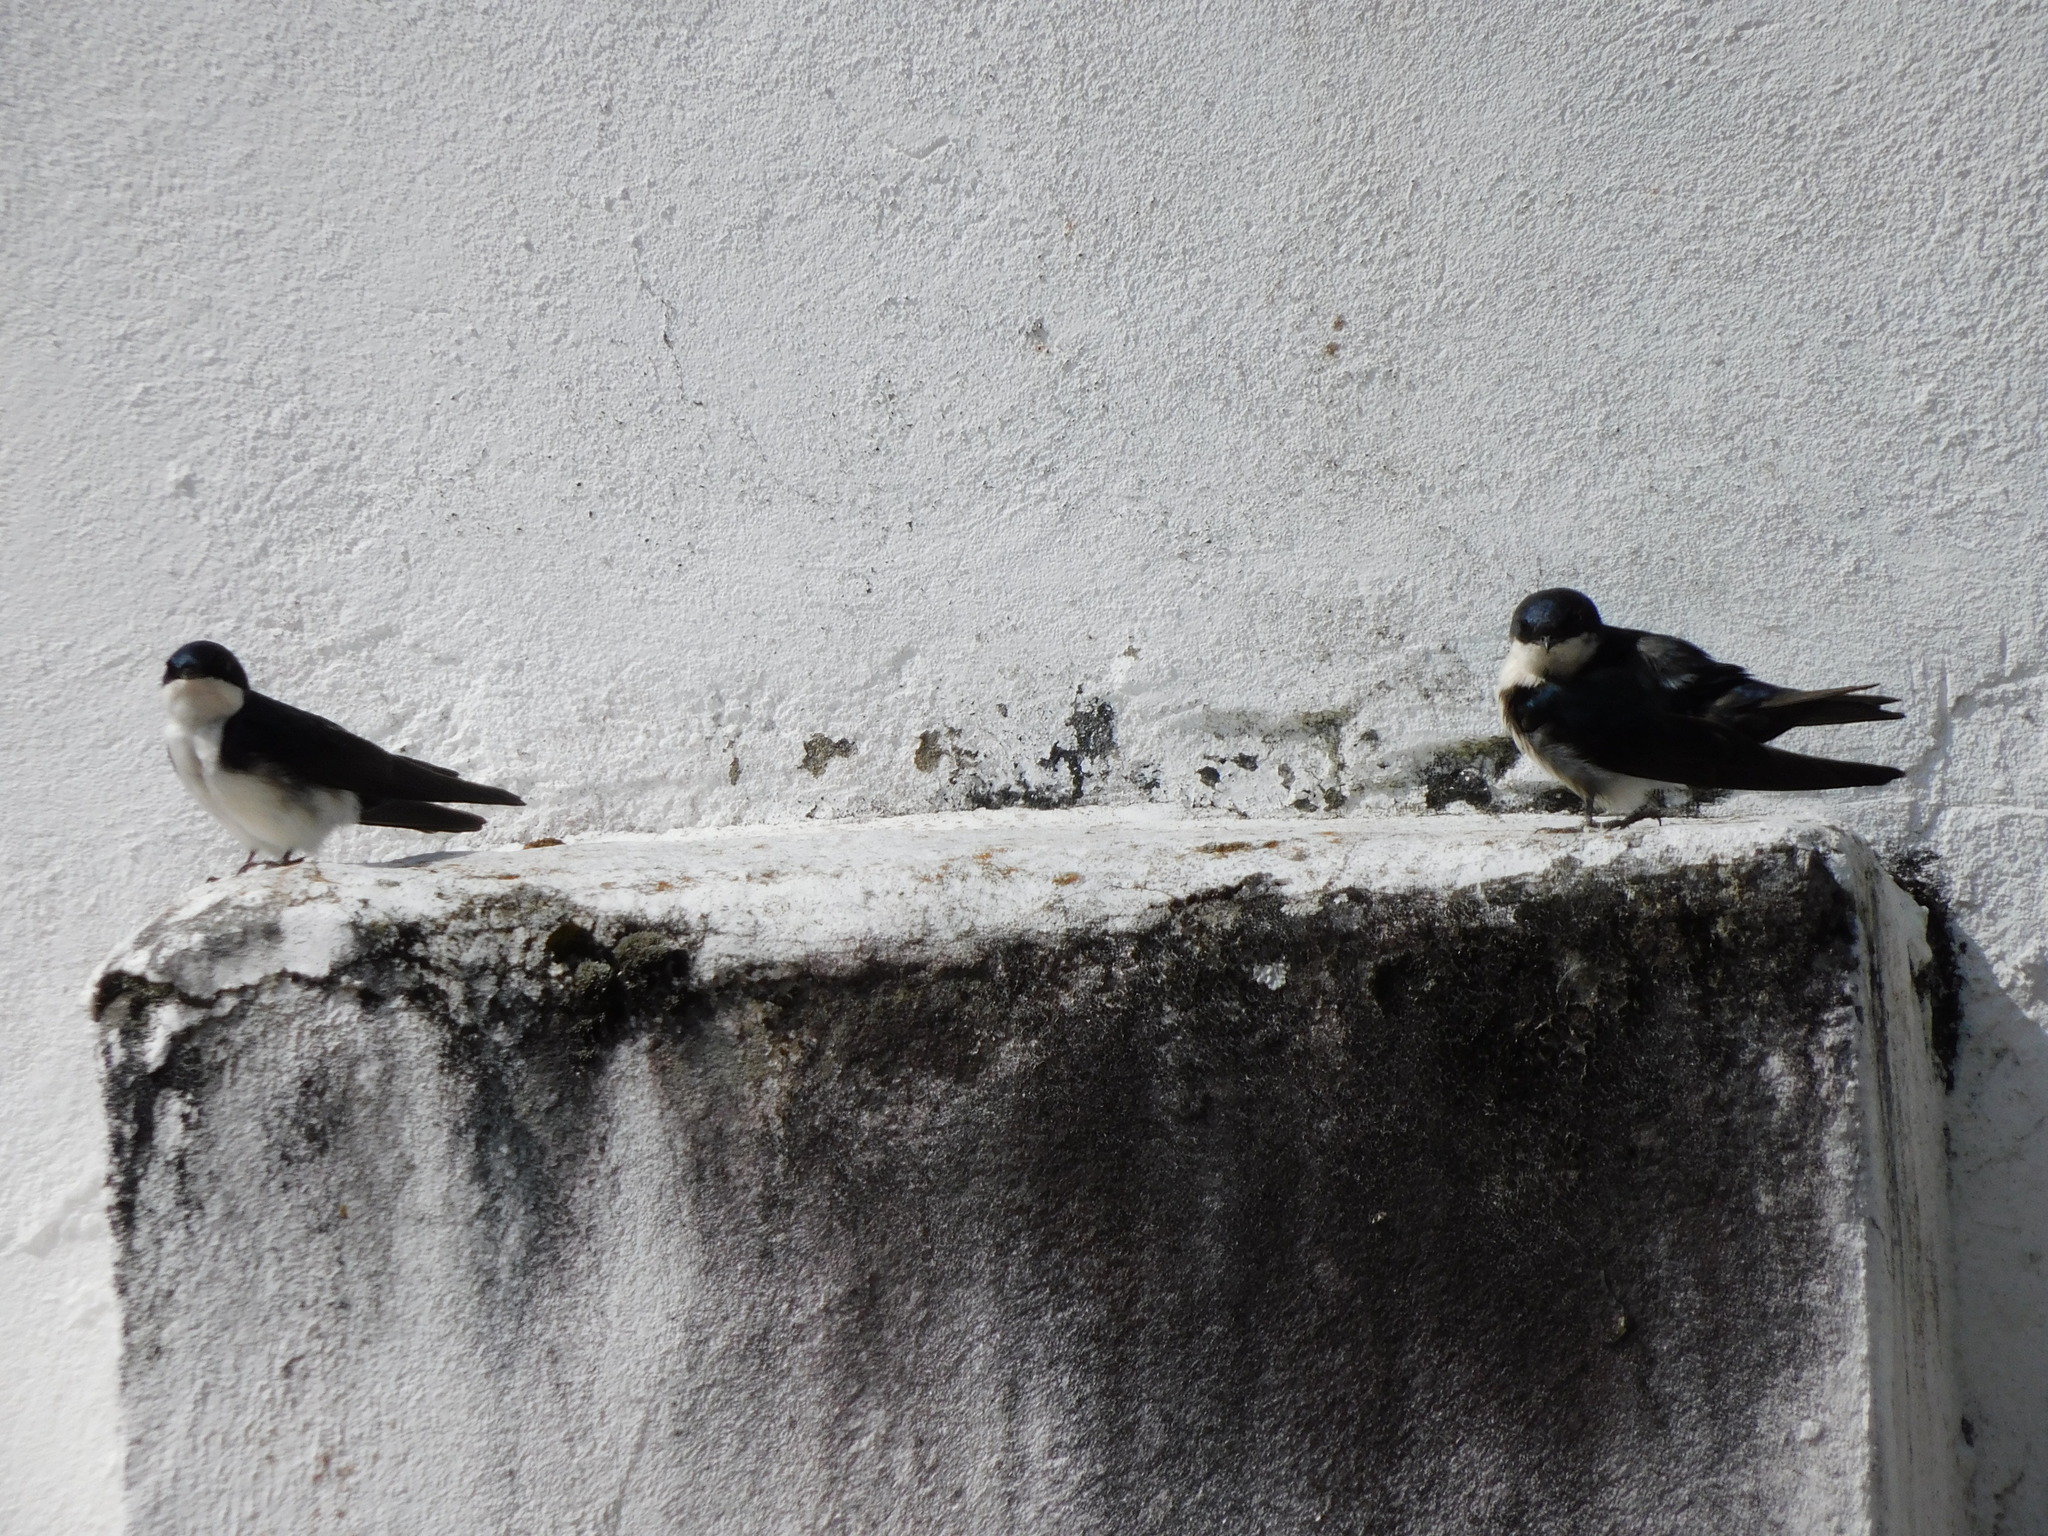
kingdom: Animalia
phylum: Chordata
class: Aves
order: Passeriformes
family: Hirundinidae
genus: Notiochelidon
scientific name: Notiochelidon cyanoleuca
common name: Blue-and-white swallow
